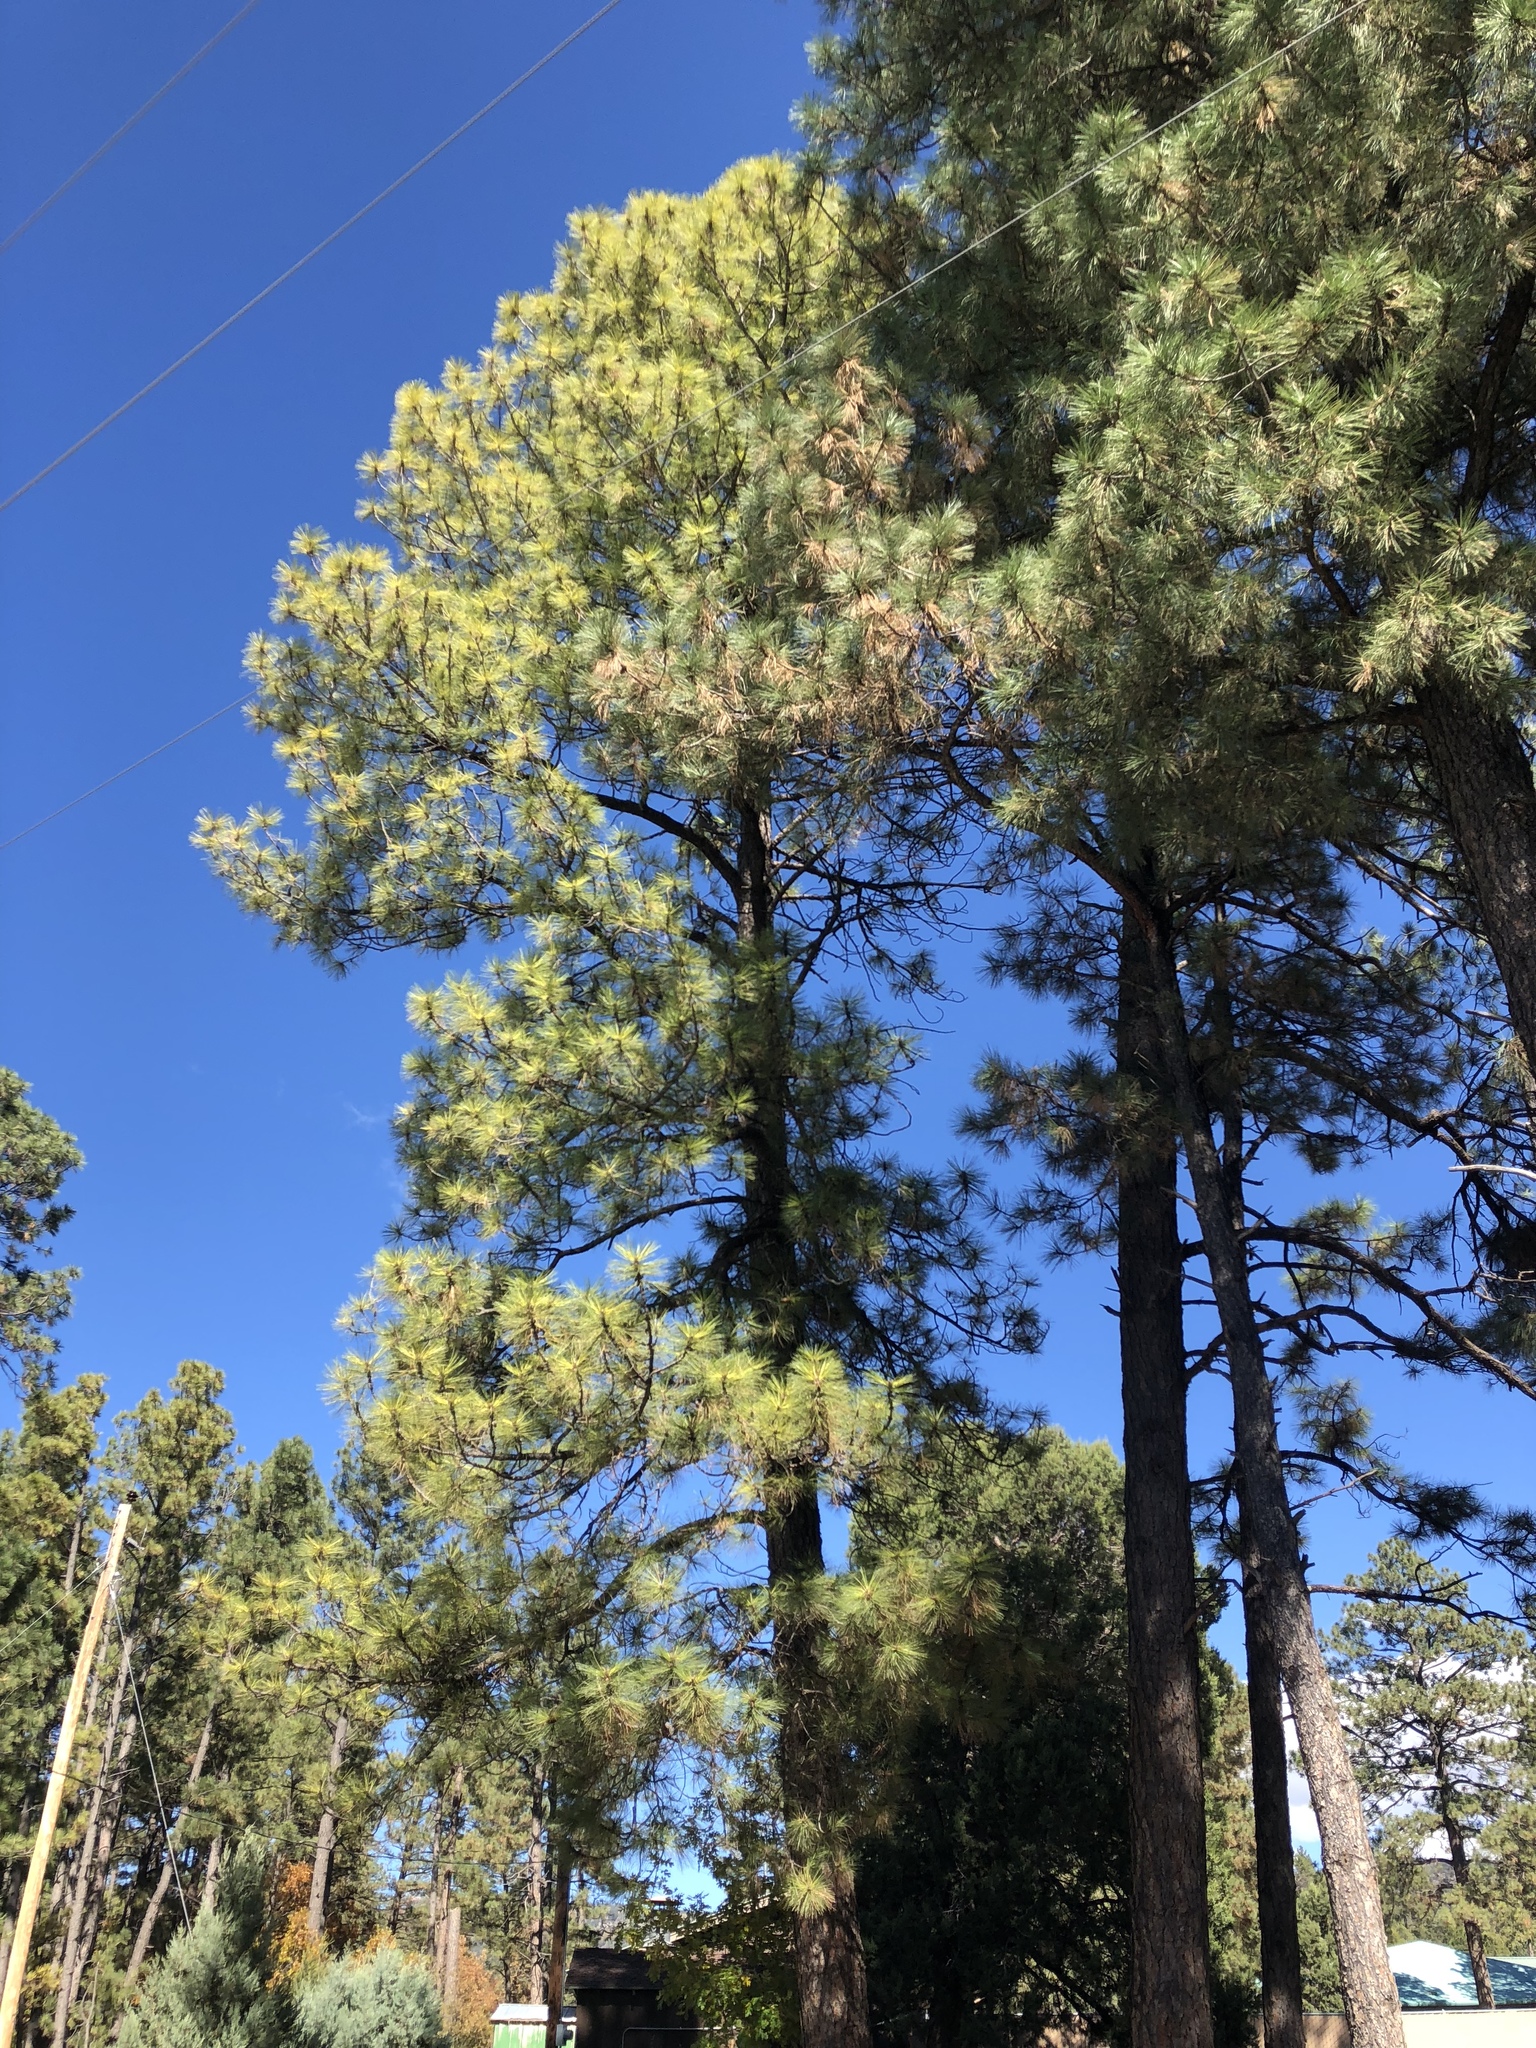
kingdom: Plantae
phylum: Tracheophyta
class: Pinopsida
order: Pinales
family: Pinaceae
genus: Pinus
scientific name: Pinus ponderosa
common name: Western yellow-pine
